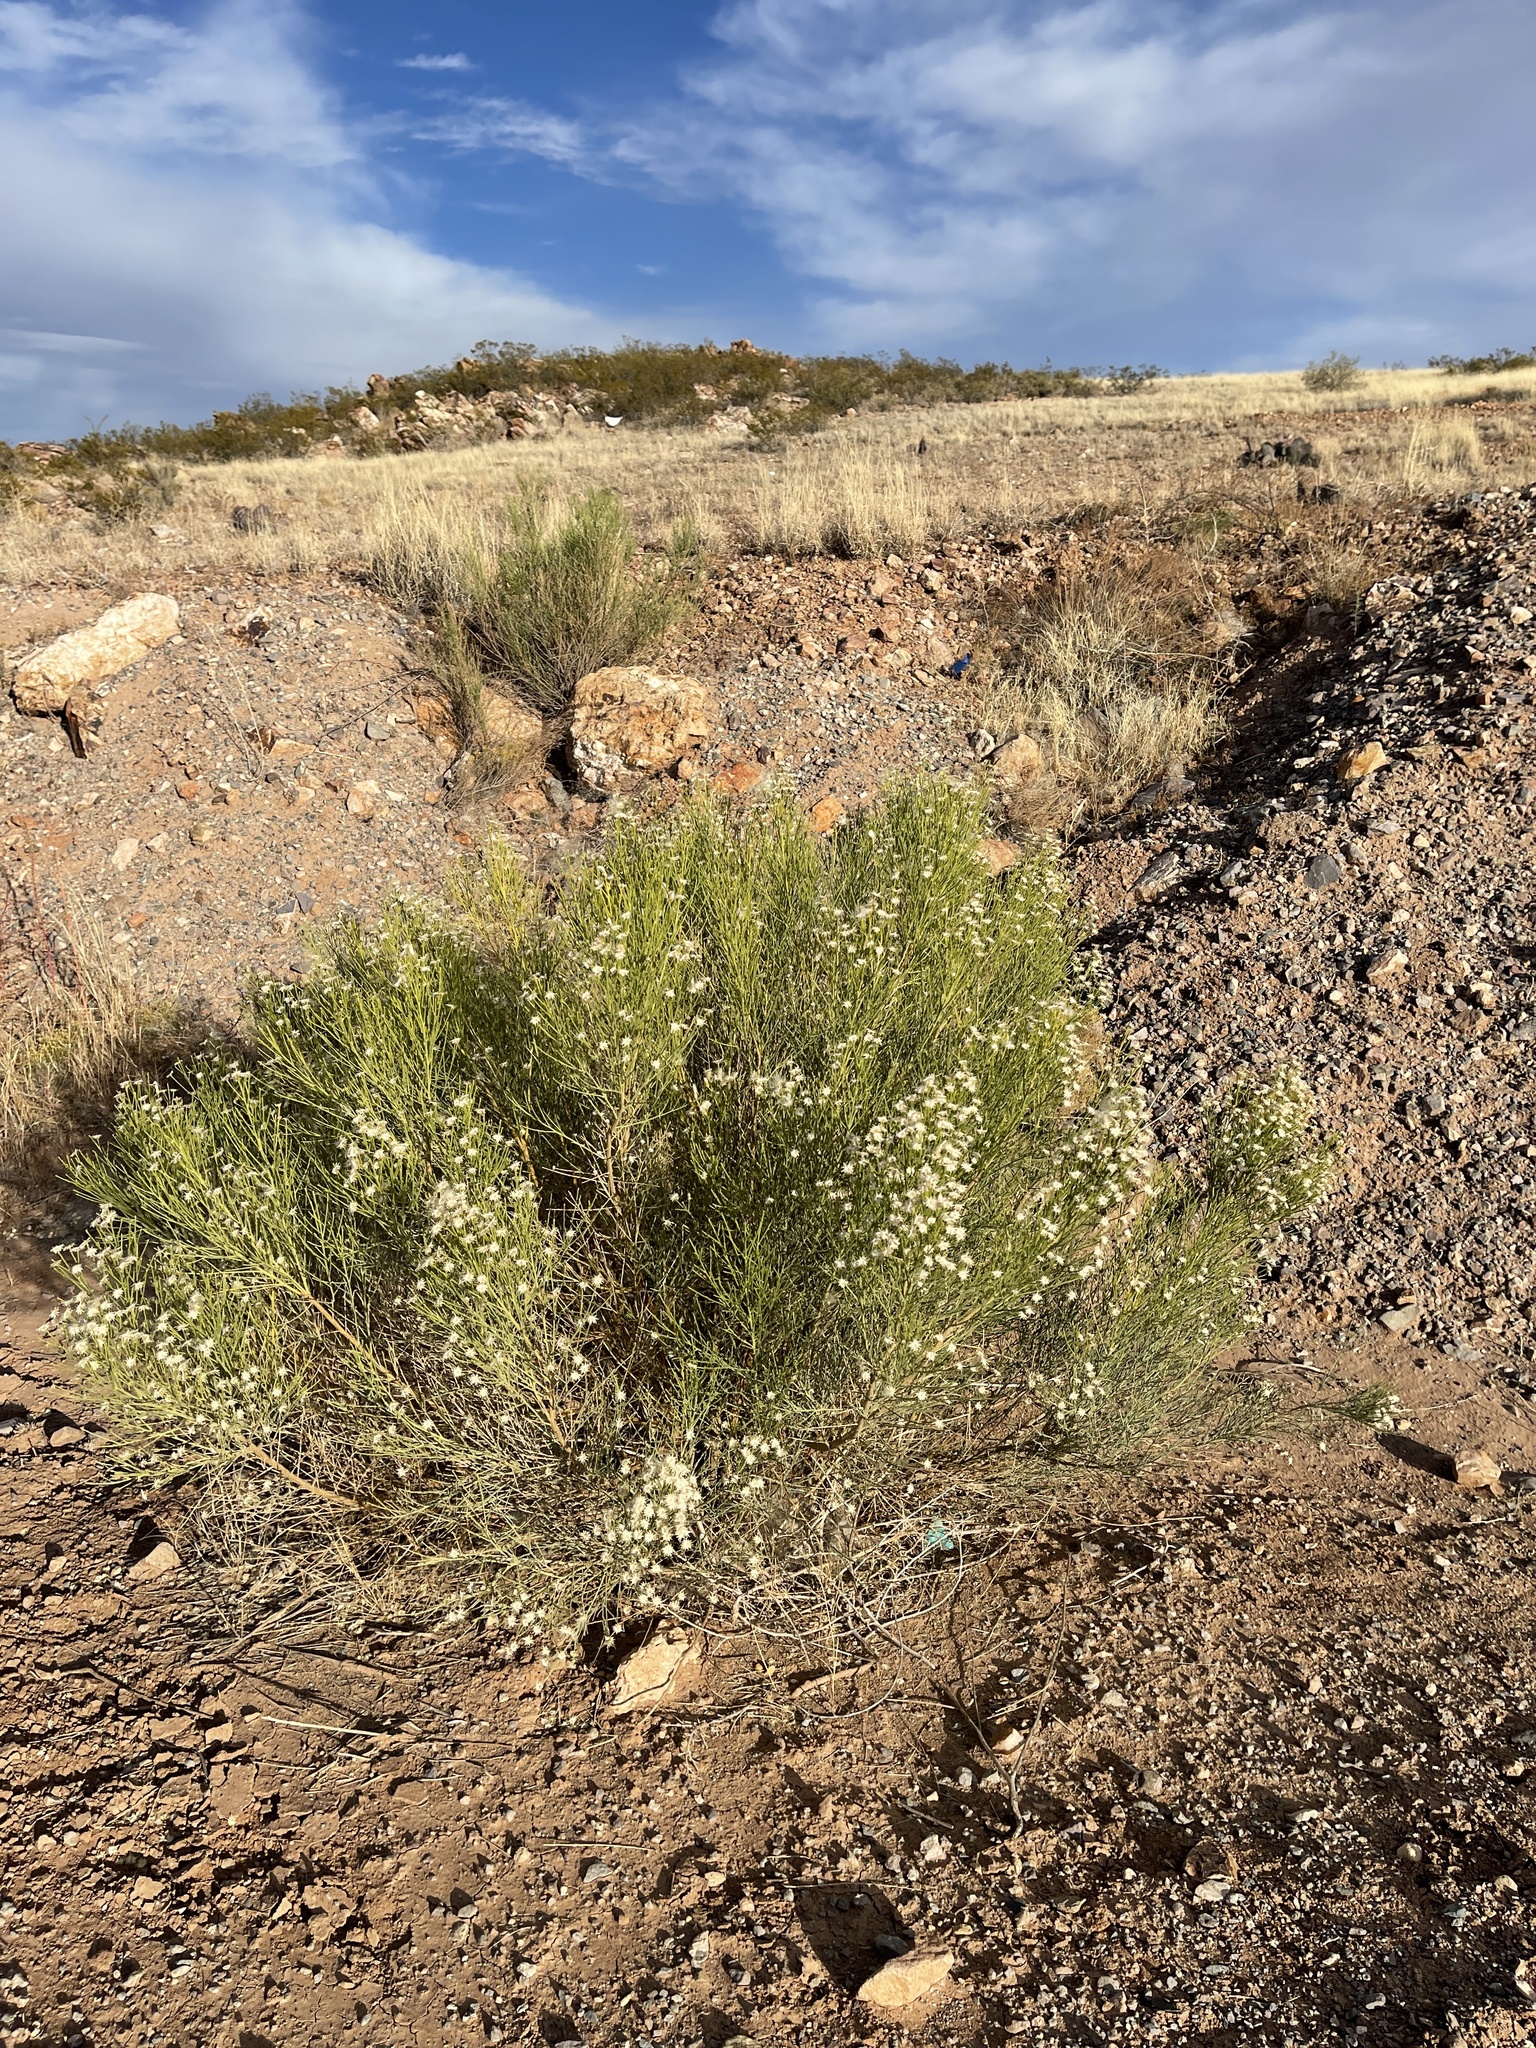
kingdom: Plantae
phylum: Tracheophyta
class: Magnoliopsida
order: Asterales
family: Asteraceae
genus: Baccharis
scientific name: Baccharis sarothroides
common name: Desert-broom
